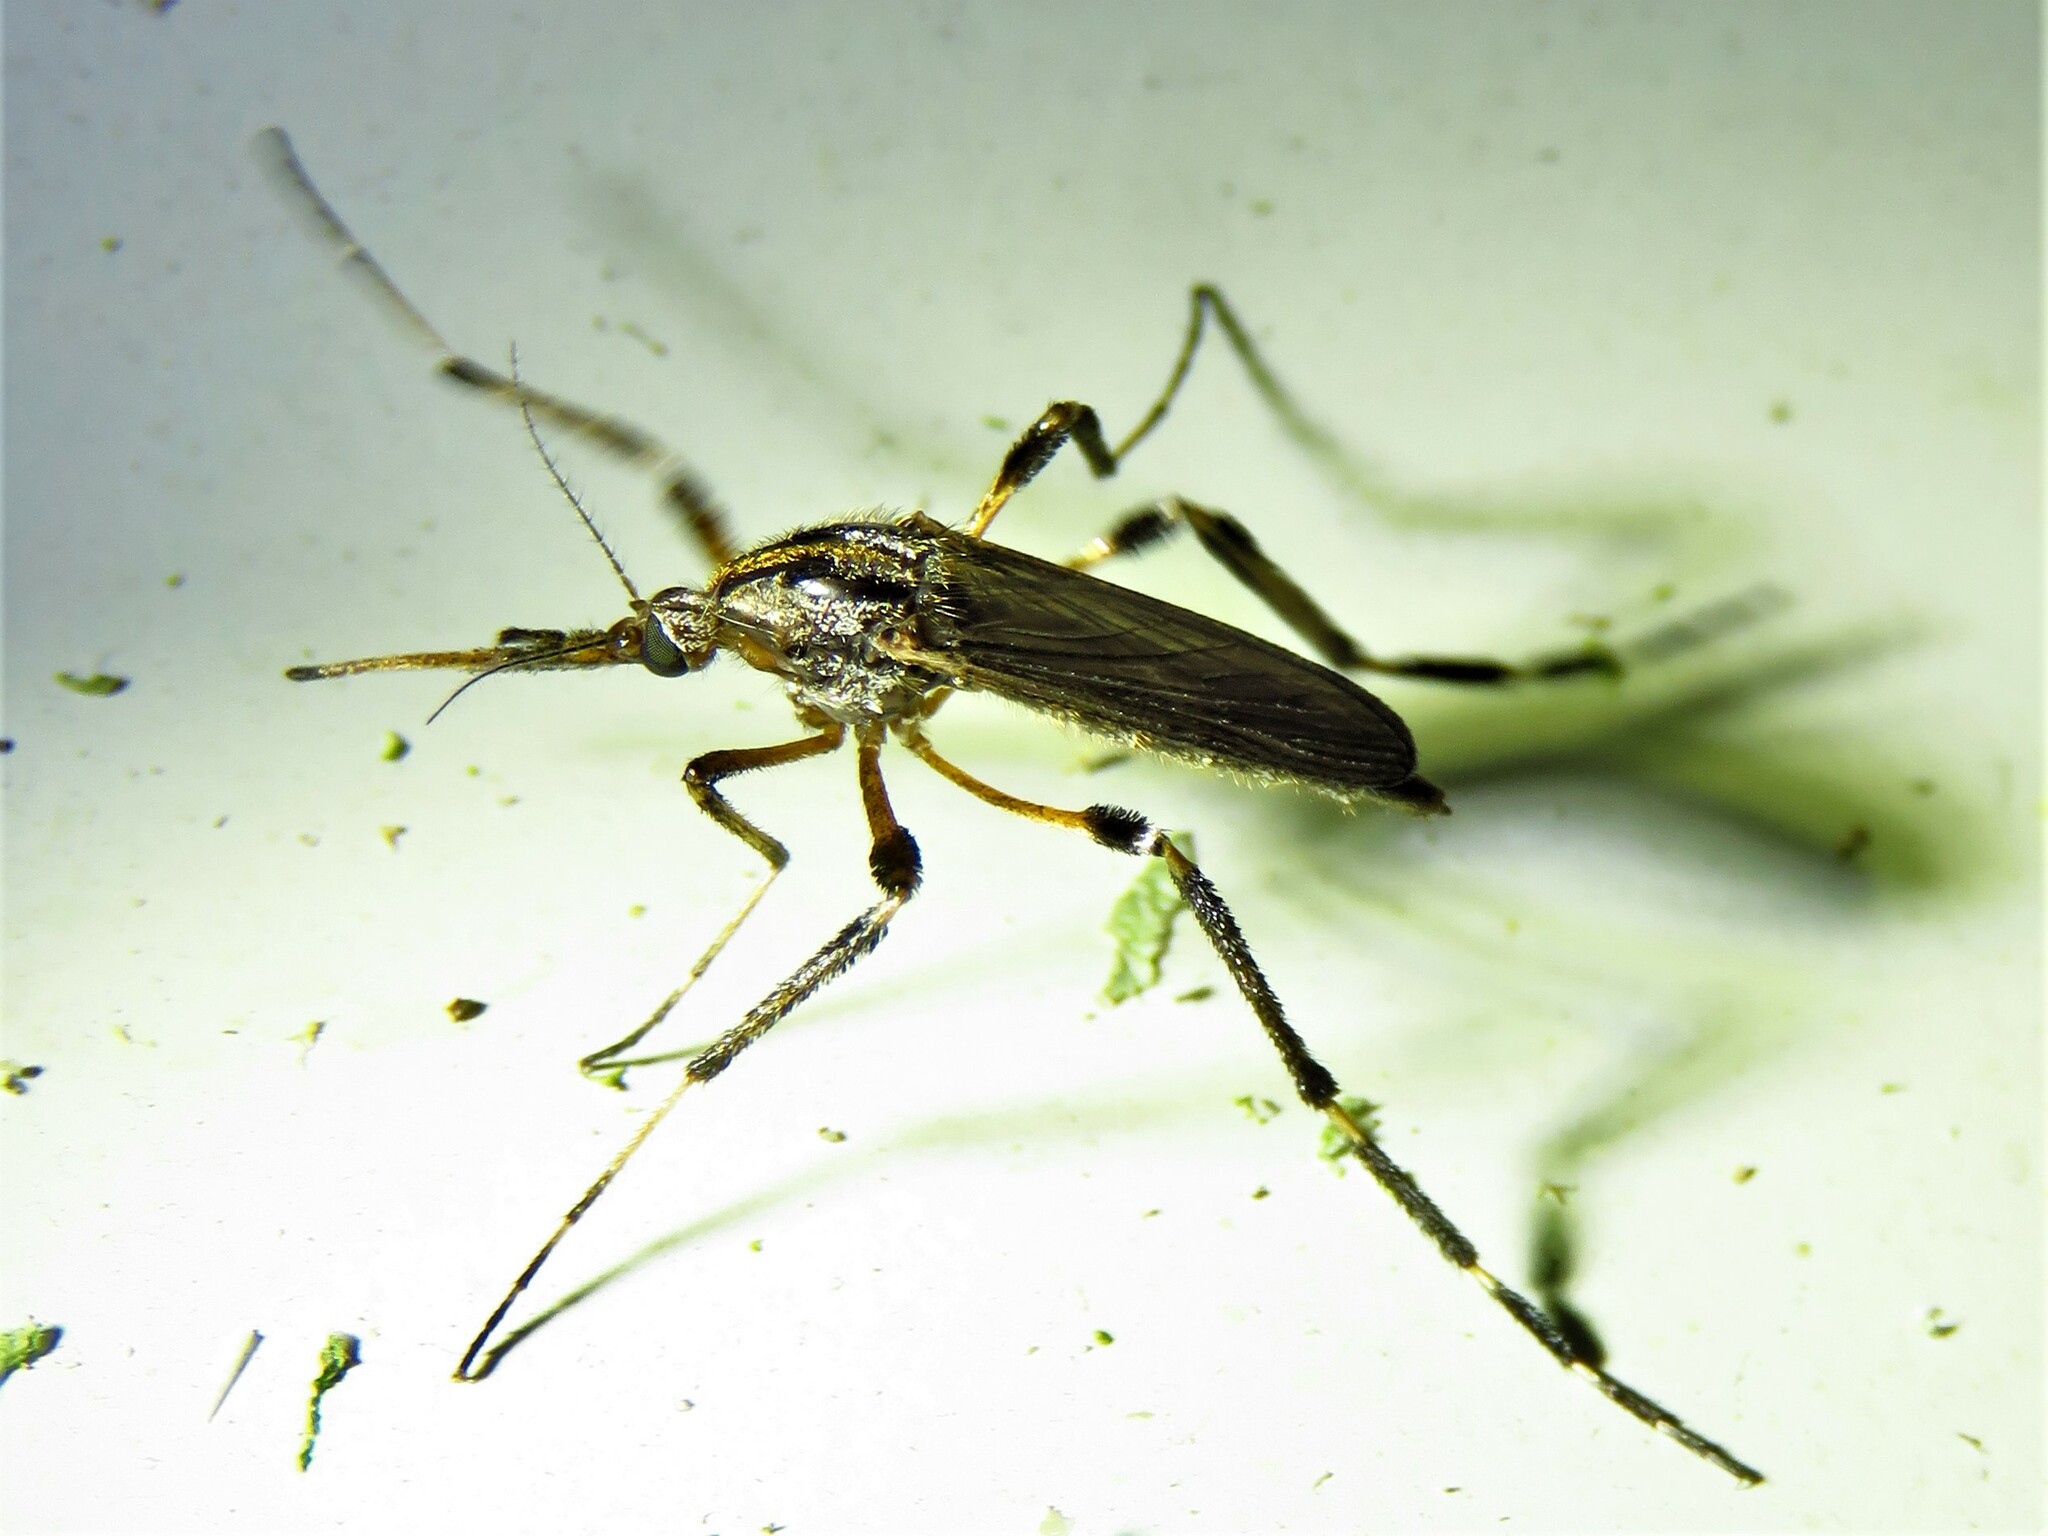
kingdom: Animalia
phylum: Arthropoda
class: Insecta
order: Diptera
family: Culicidae
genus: Psorophora
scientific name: Psorophora ciliata
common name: Gallinipper
